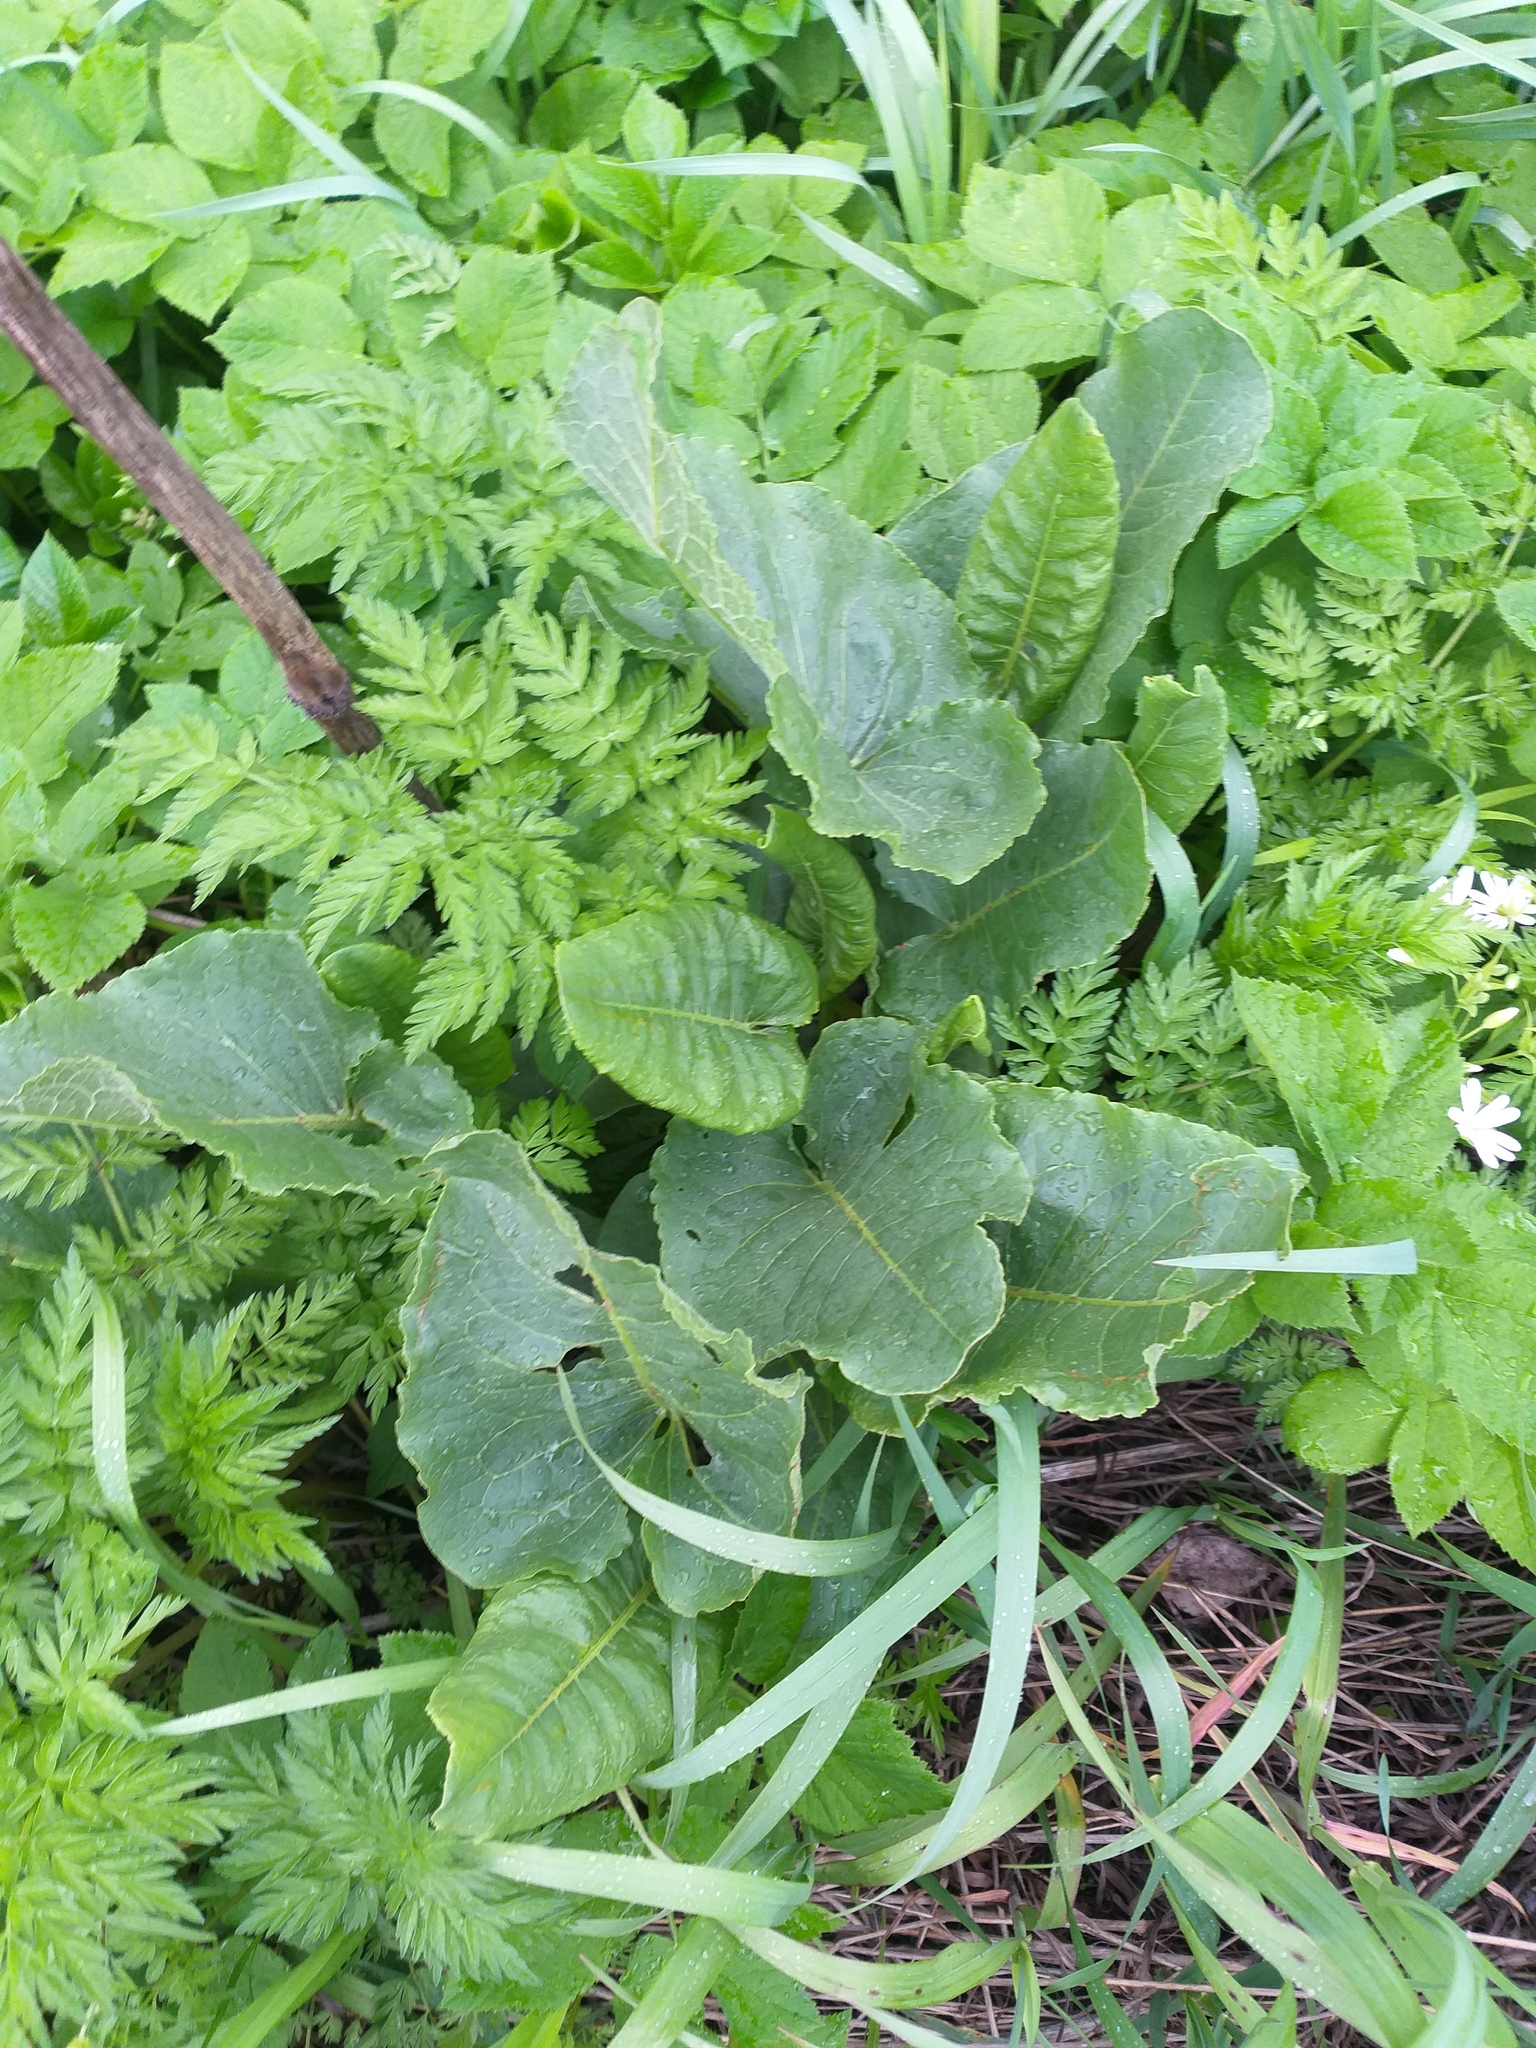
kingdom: Plantae
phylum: Tracheophyta
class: Magnoliopsida
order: Caryophyllales
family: Polygonaceae
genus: Rumex
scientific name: Rumex confertus
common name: Russian dock
